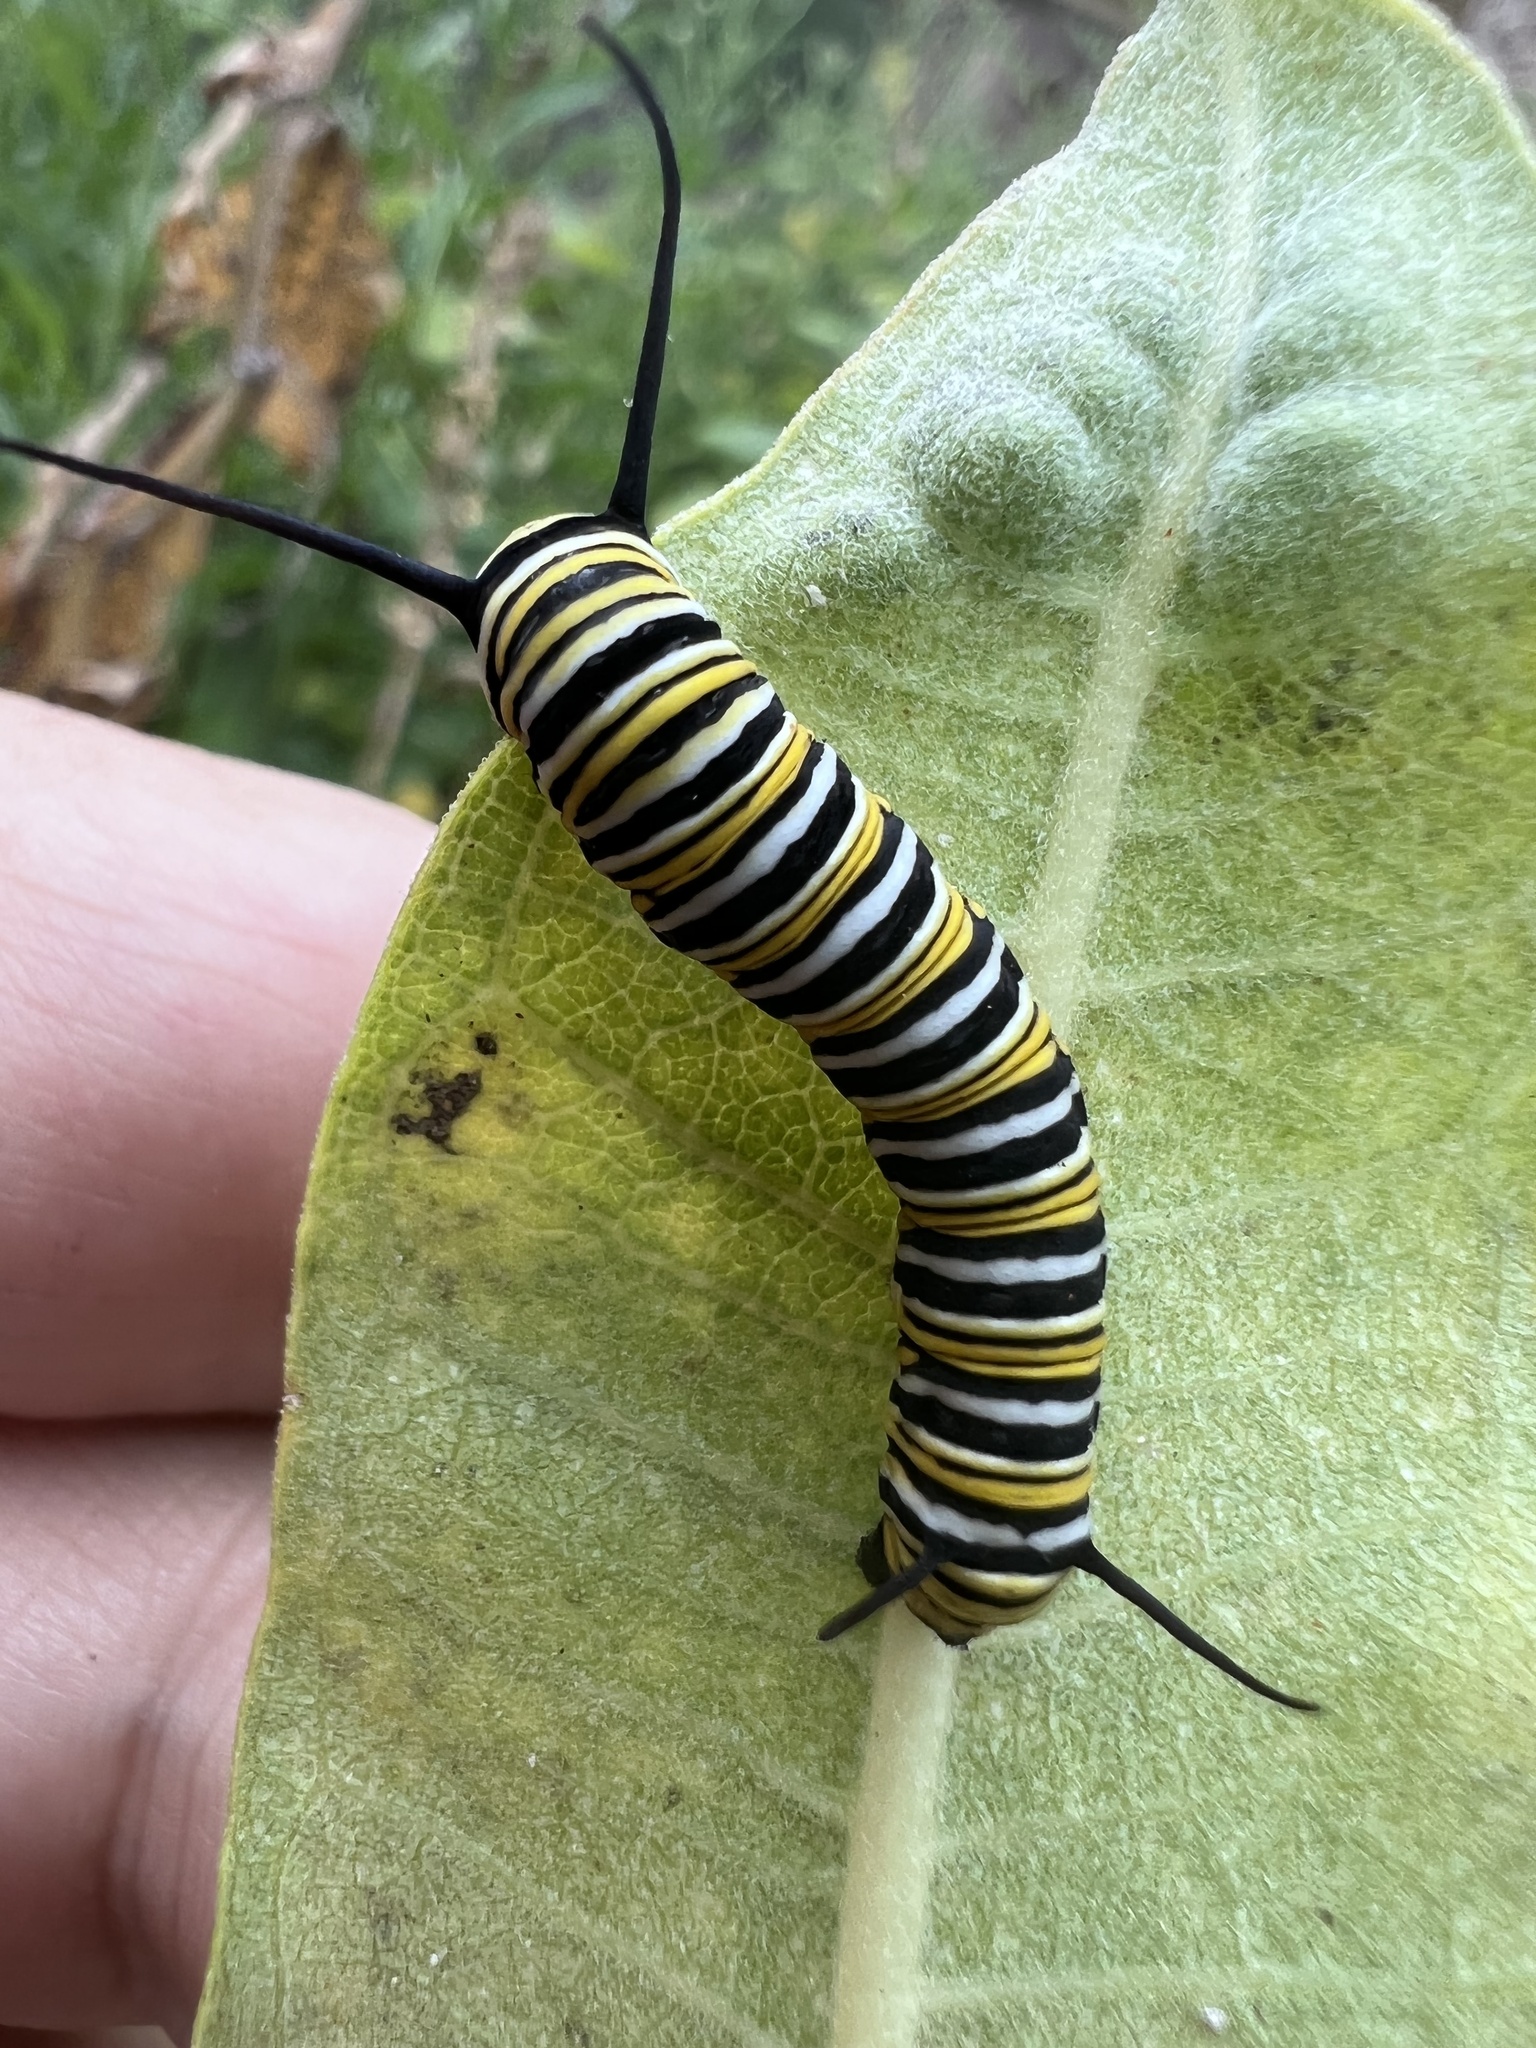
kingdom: Animalia
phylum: Arthropoda
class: Insecta
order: Lepidoptera
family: Nymphalidae
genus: Danaus
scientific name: Danaus plexippus
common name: Monarch
